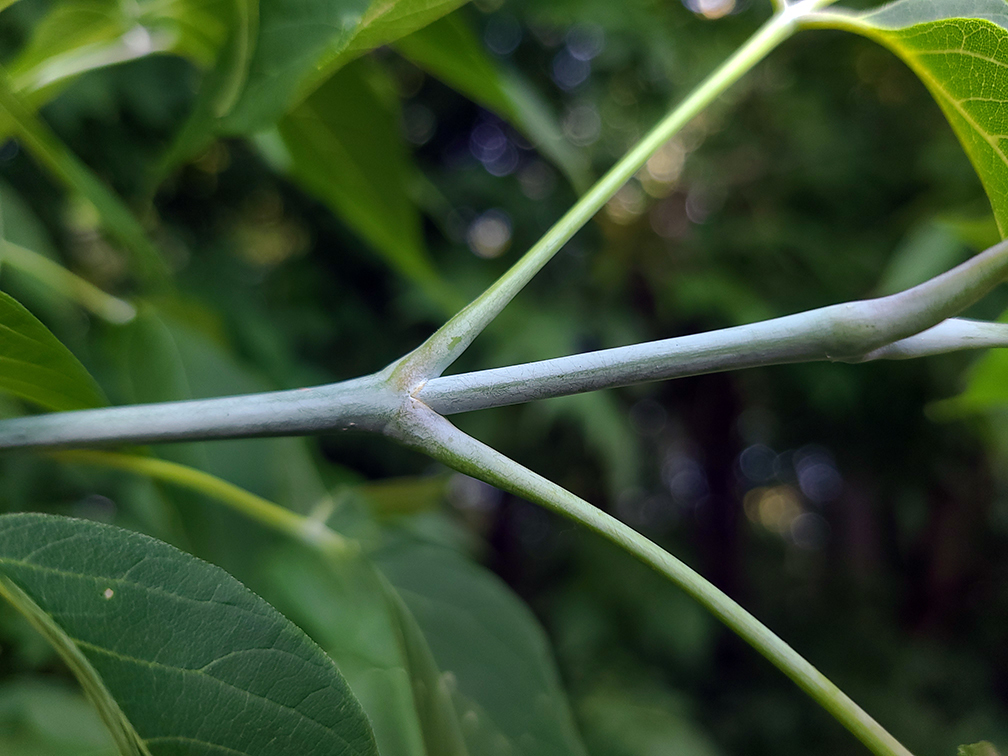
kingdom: Plantae
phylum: Tracheophyta
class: Magnoliopsida
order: Sapindales
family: Sapindaceae
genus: Acer
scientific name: Acer negundo
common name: Ashleaf maple
